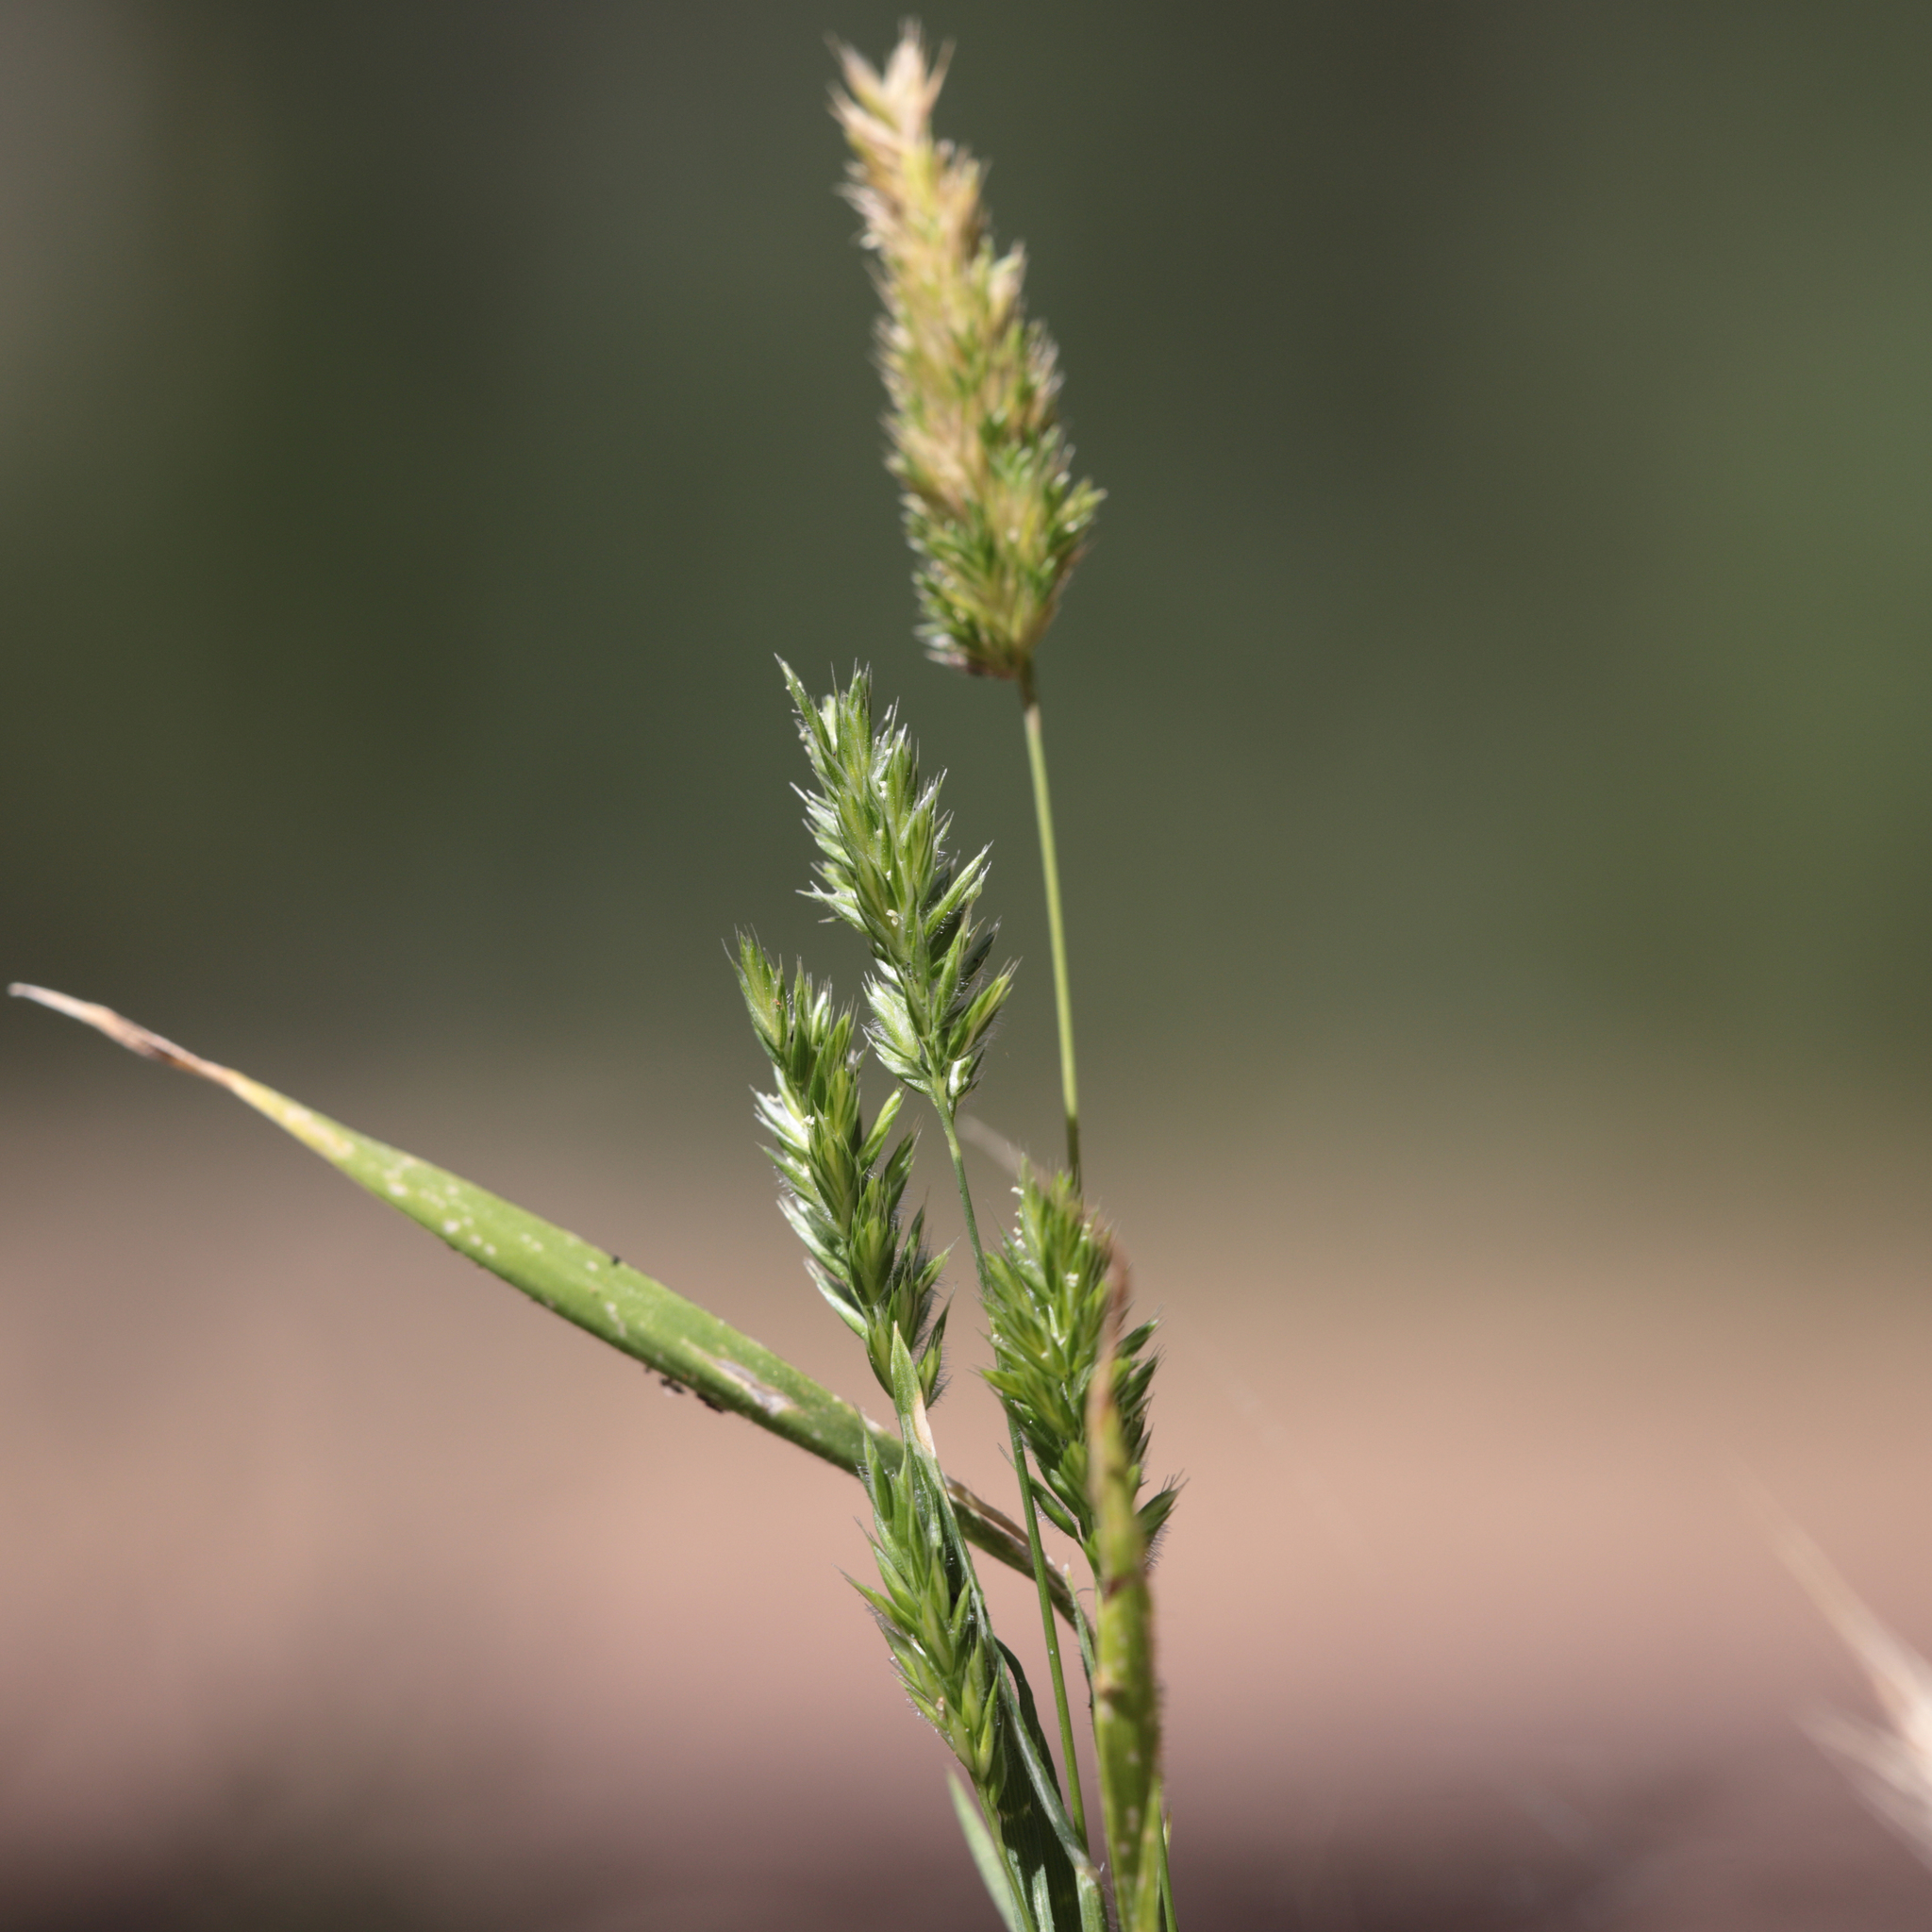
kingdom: Plantae
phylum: Tracheophyta
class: Liliopsida
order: Poales
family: Poaceae
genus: Rostraria
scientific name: Rostraria cristata
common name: Mediterranean hair-grass
